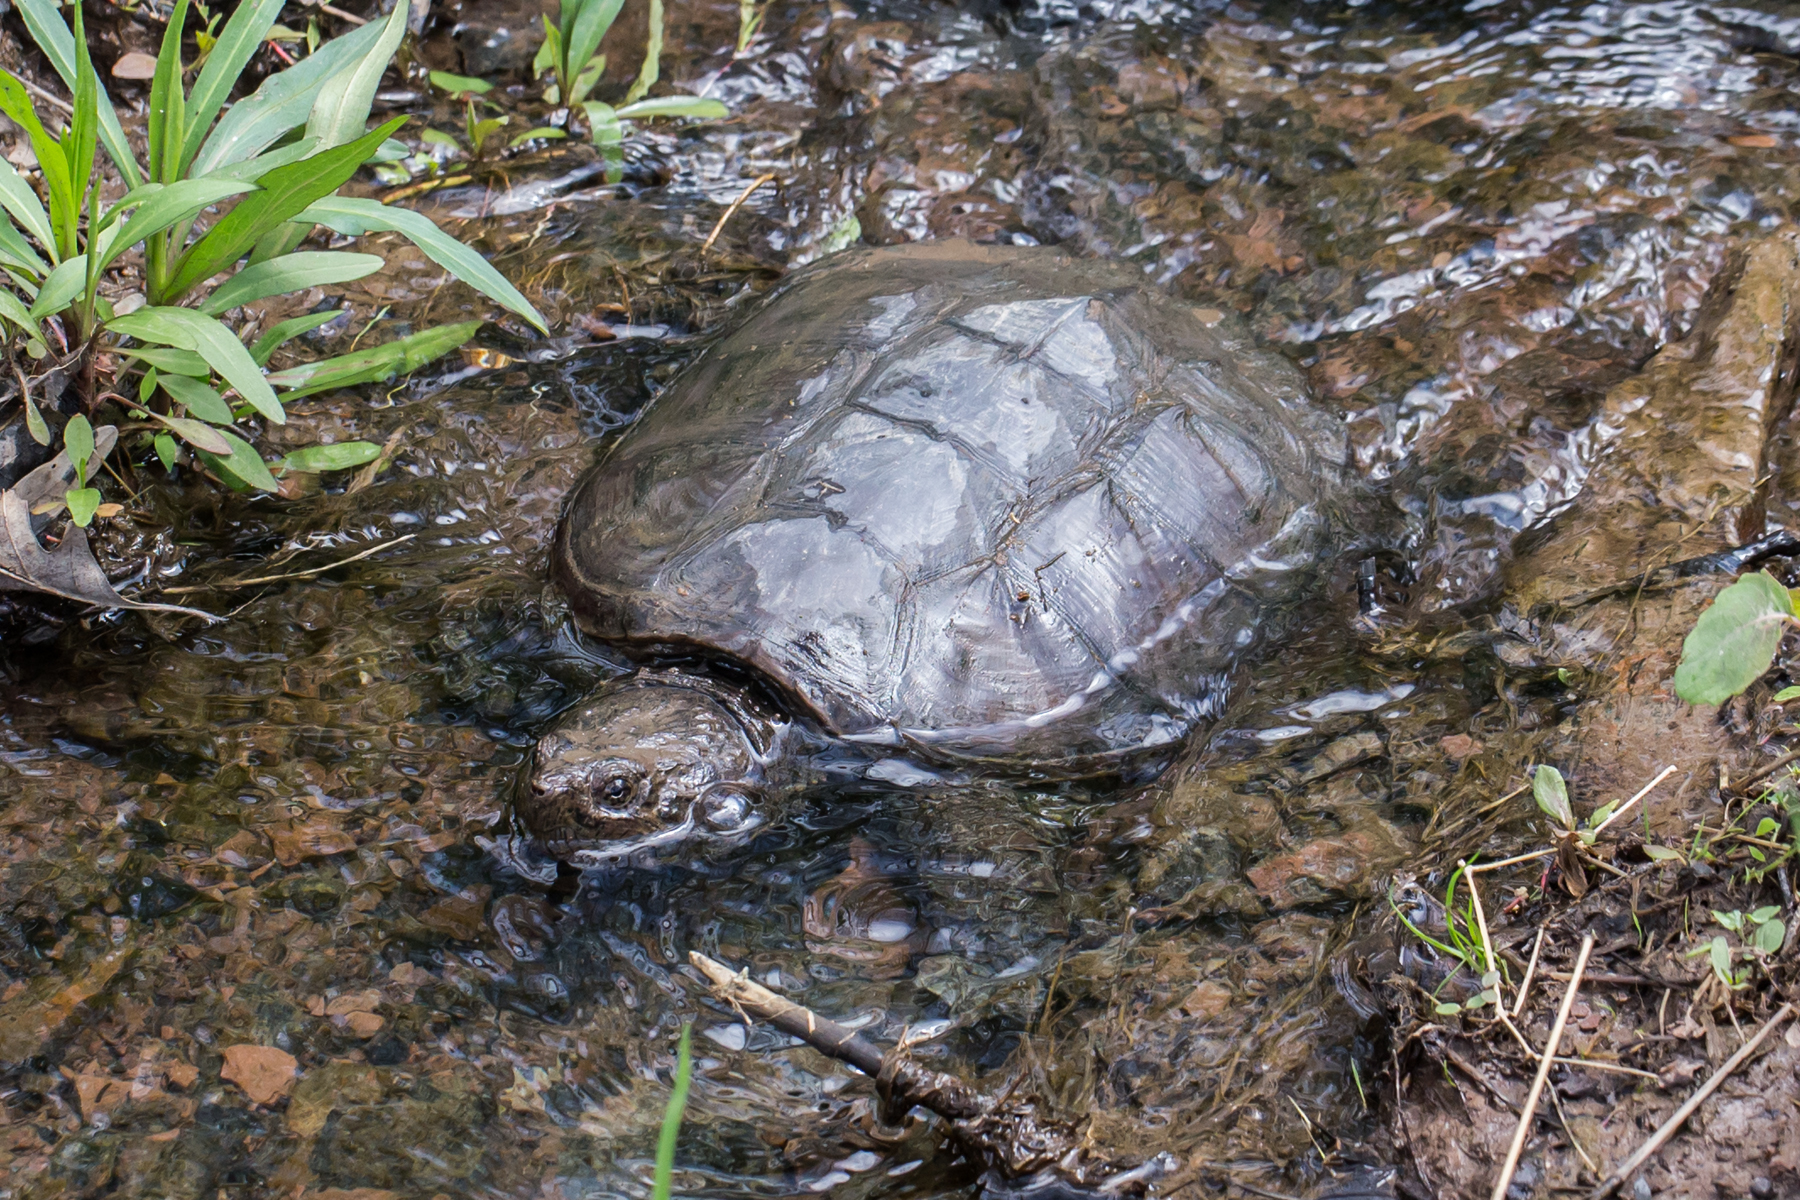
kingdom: Animalia
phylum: Chordata
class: Testudines
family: Chelydridae
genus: Chelydra
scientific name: Chelydra serpentina
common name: Common snapping turtle
